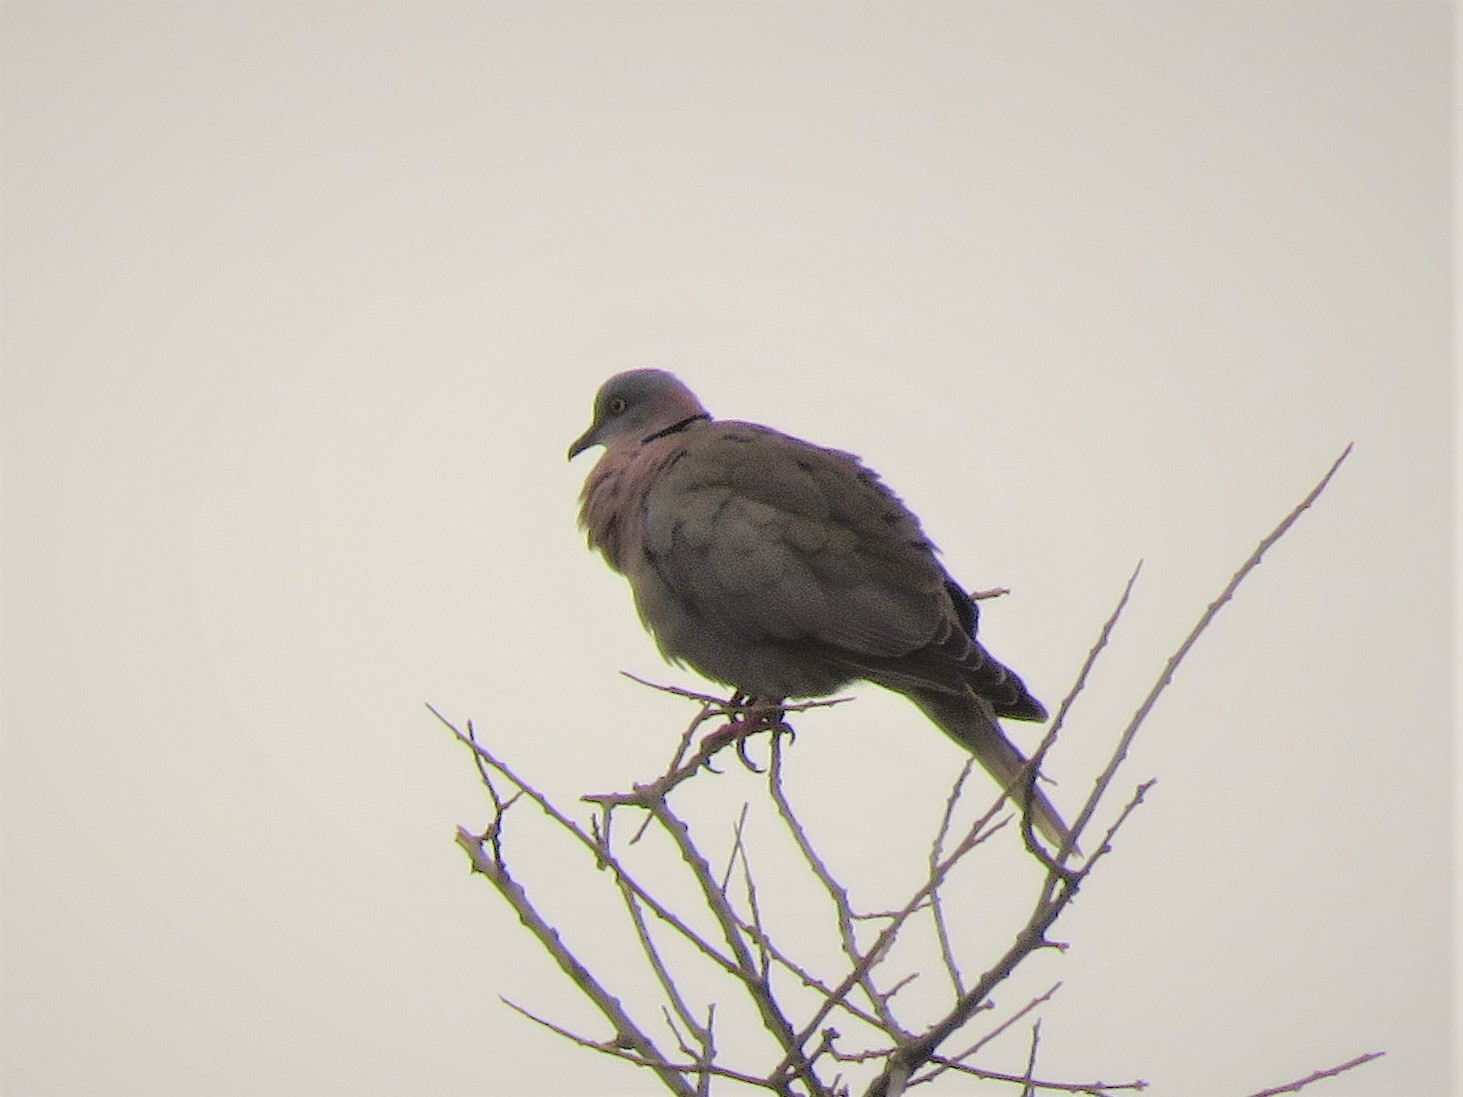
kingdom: Animalia
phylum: Chordata
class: Aves
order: Columbiformes
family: Columbidae
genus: Streptopelia
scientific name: Streptopelia decipiens
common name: Mourning collared dove
